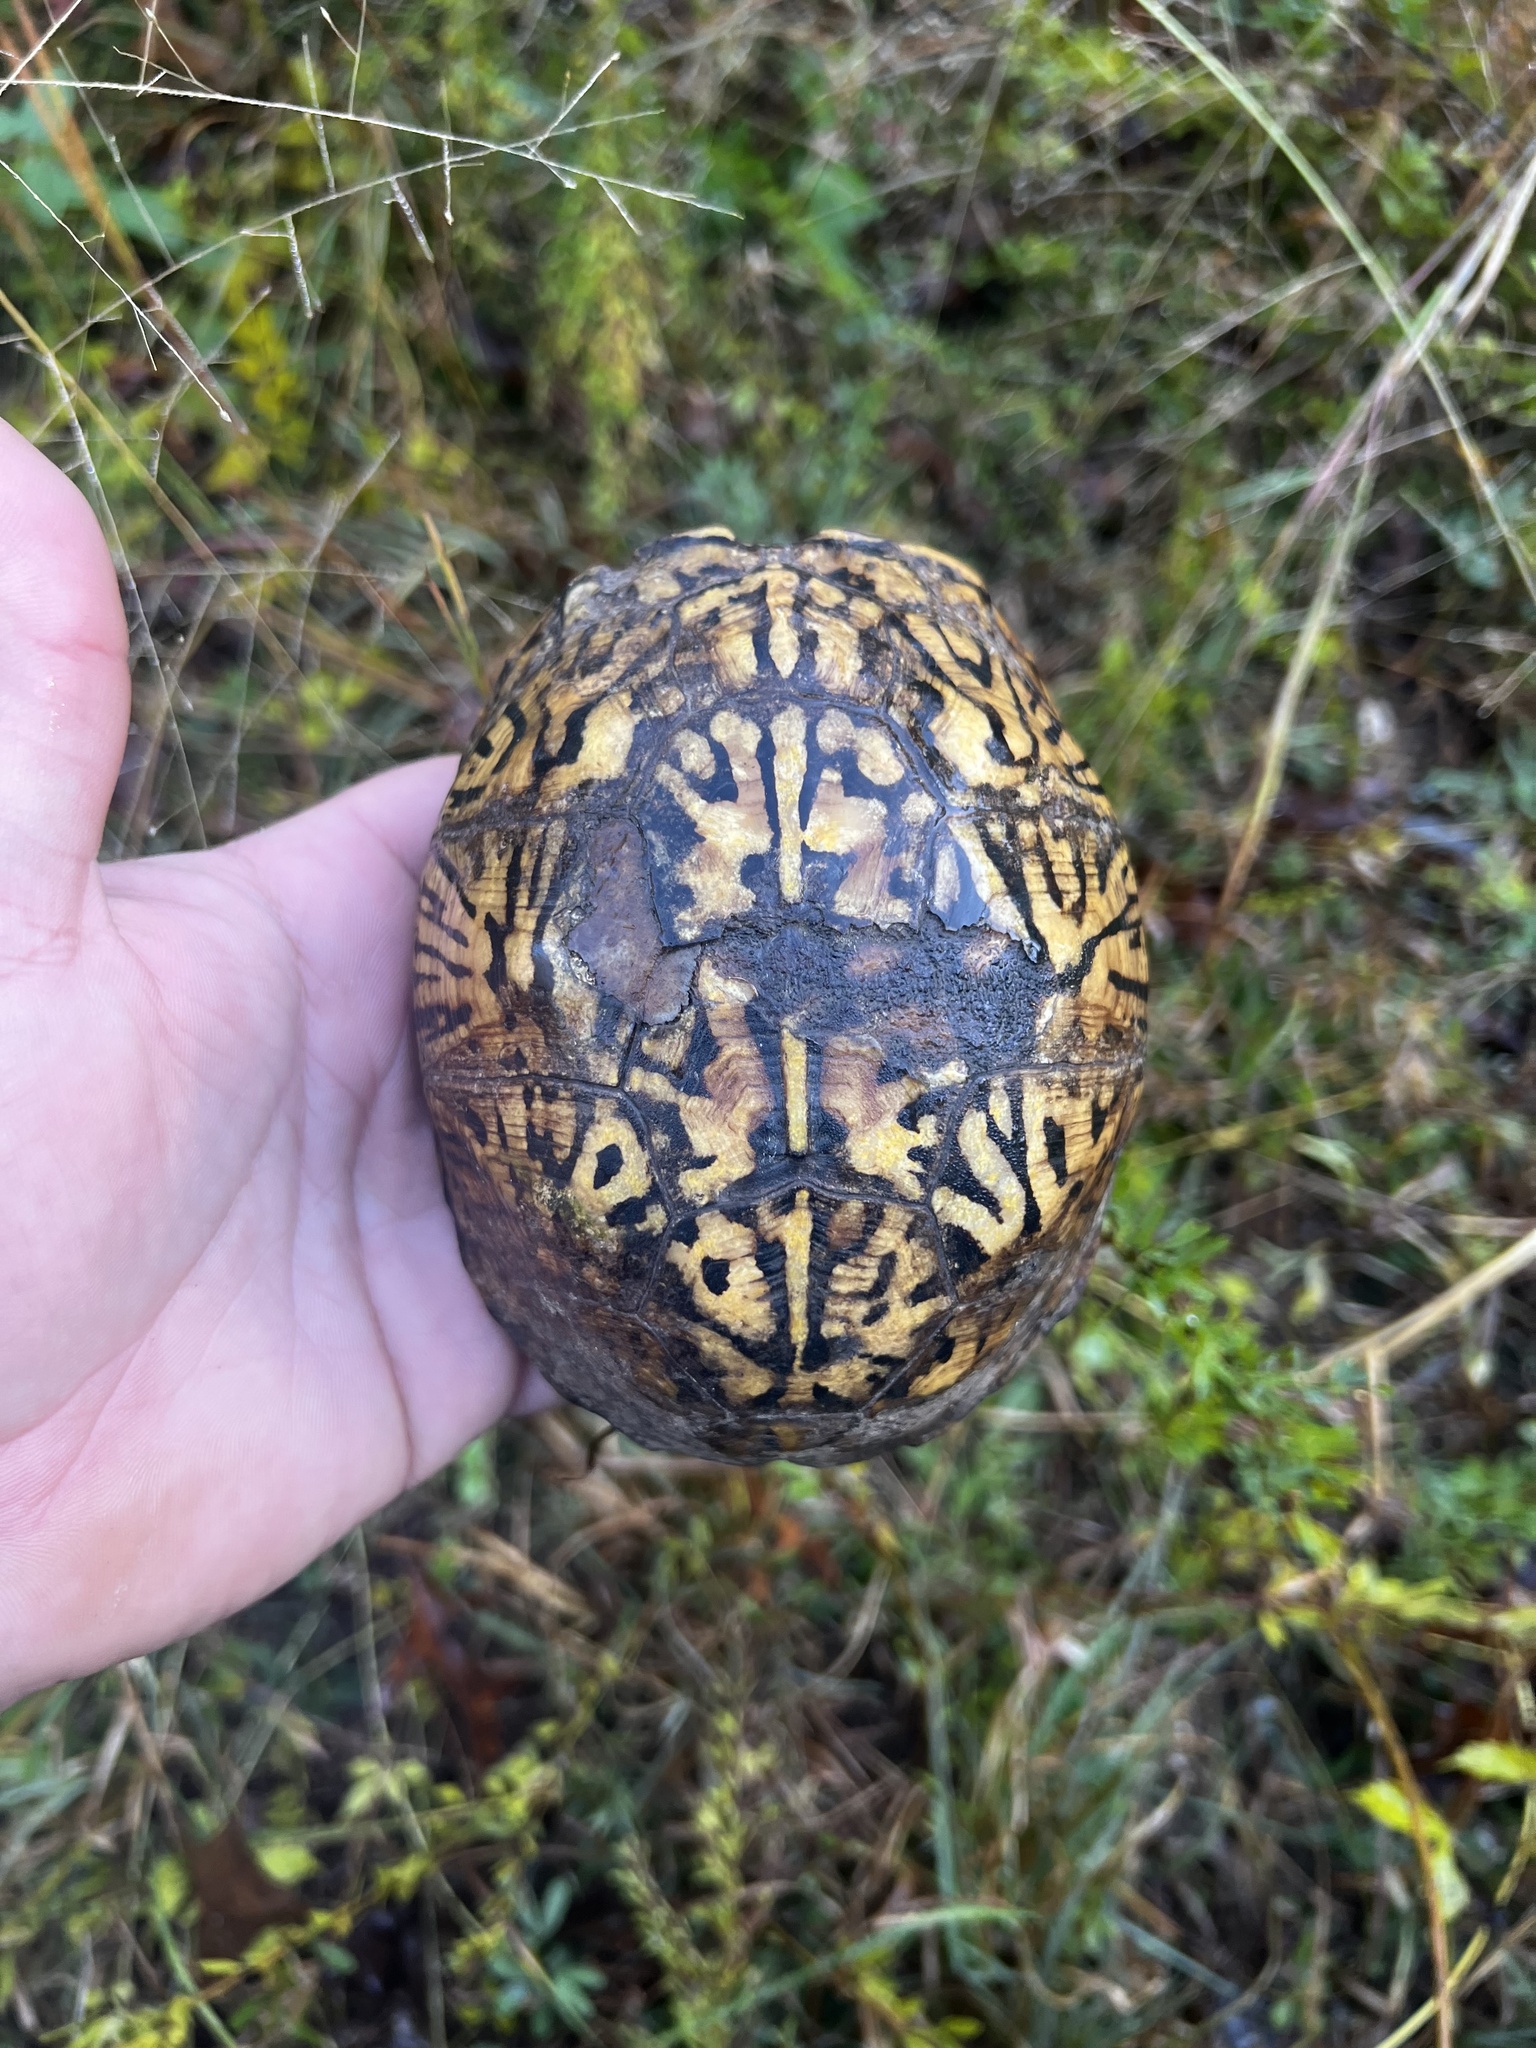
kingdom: Animalia
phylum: Chordata
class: Testudines
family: Emydidae
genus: Terrapene
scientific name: Terrapene carolina
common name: Common box turtle
